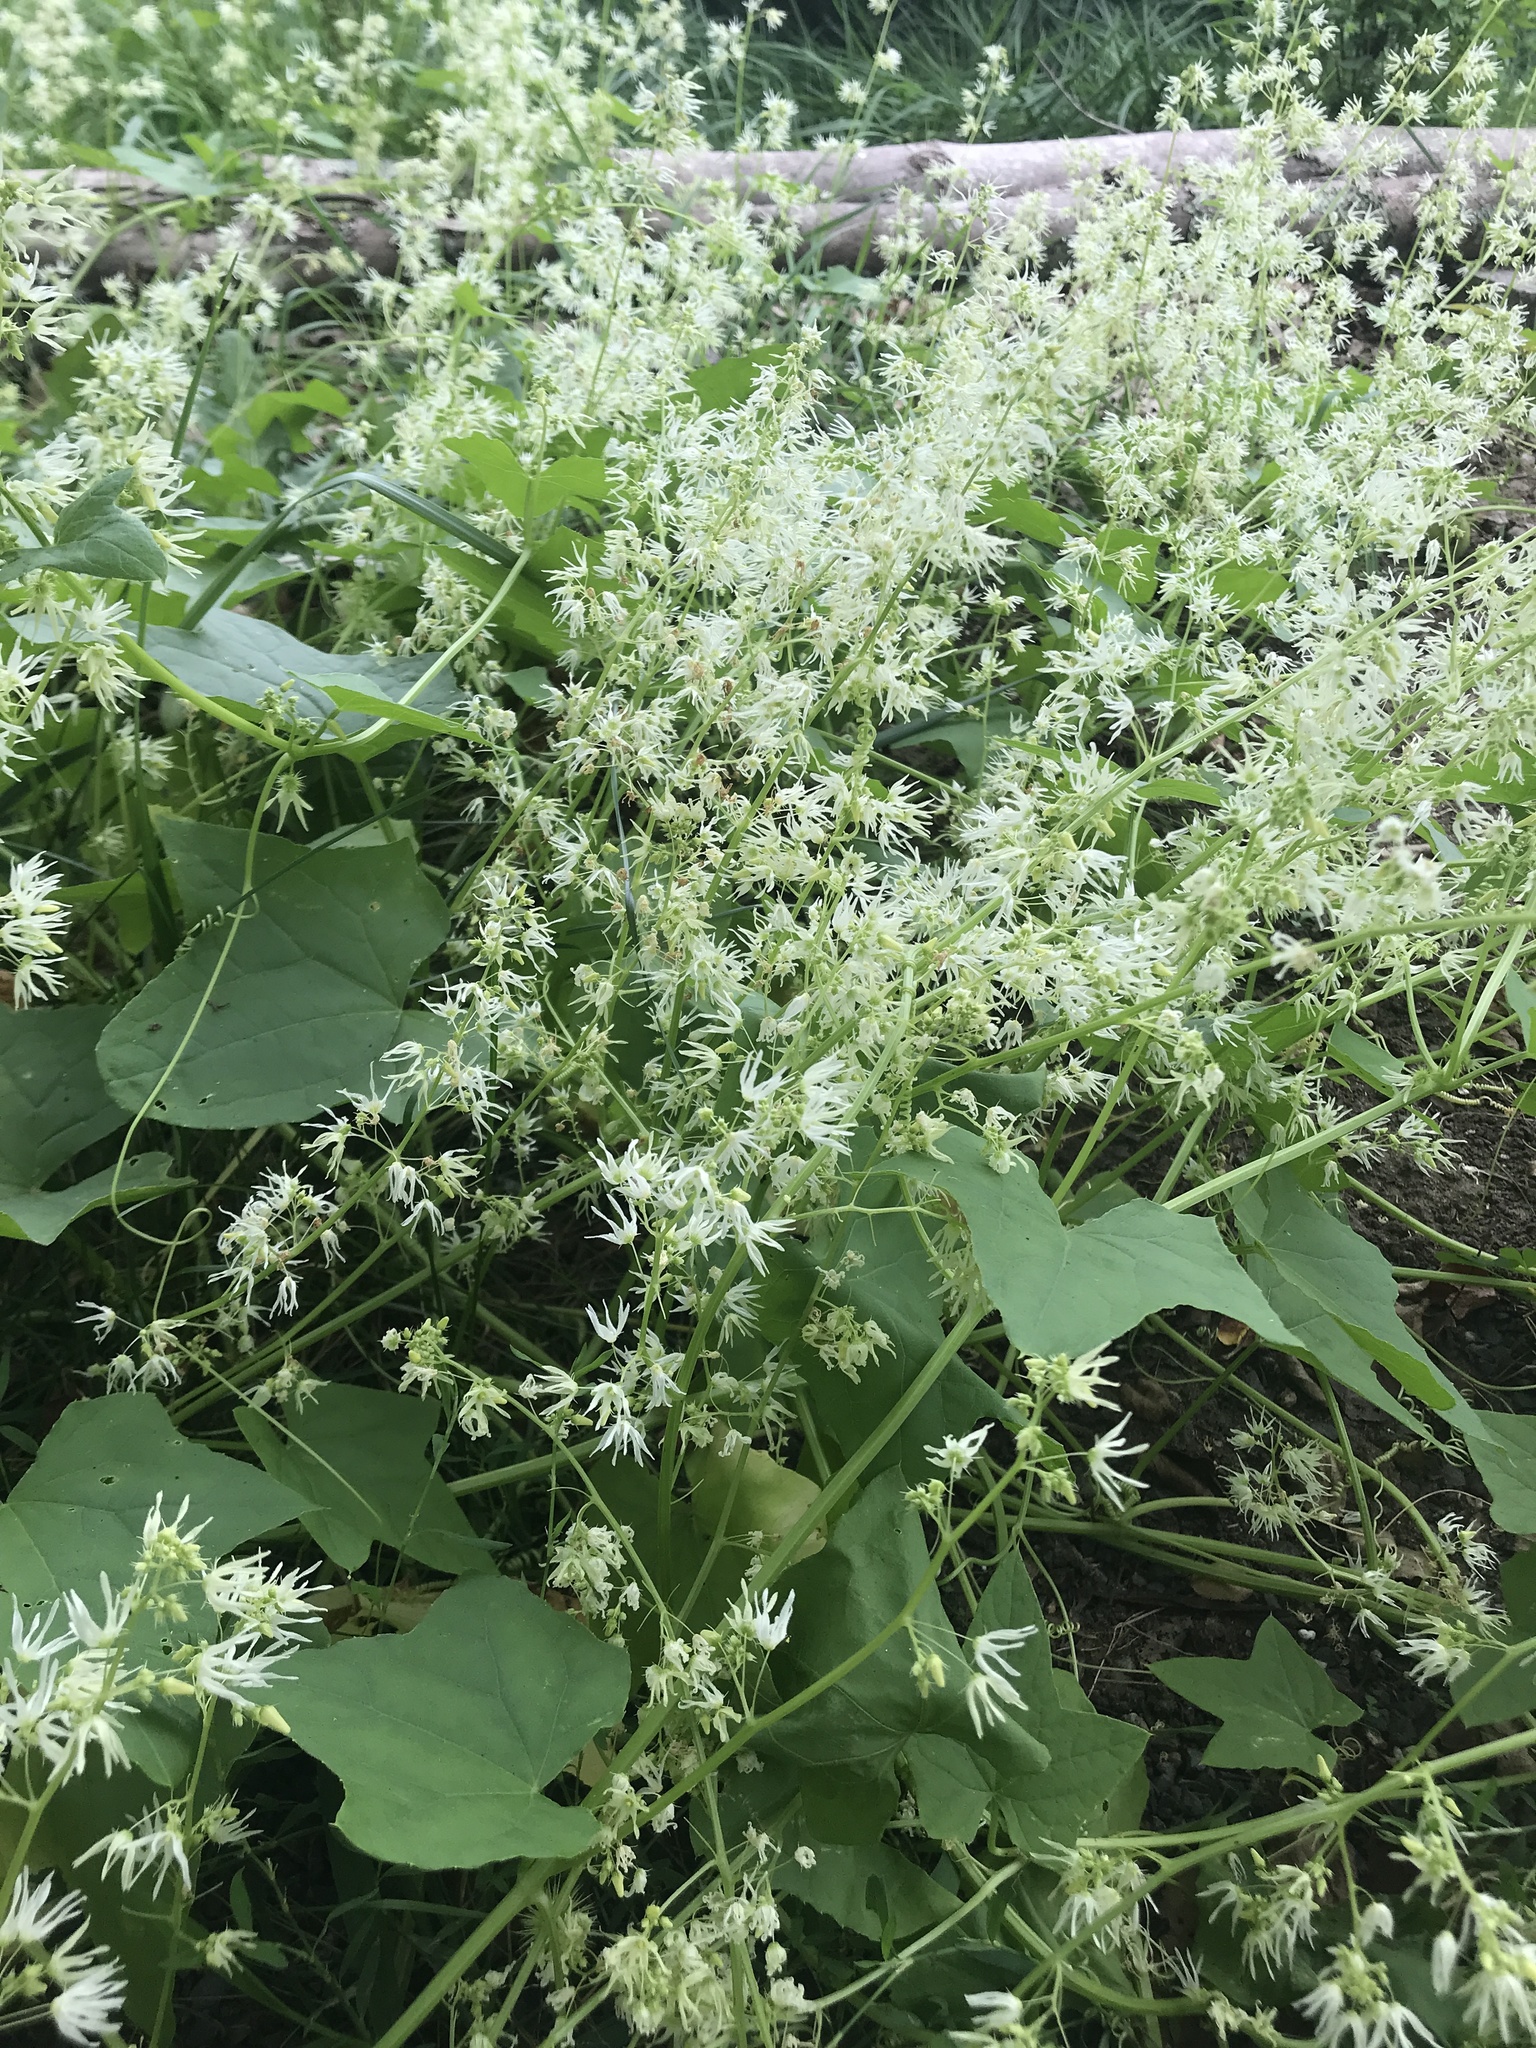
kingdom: Plantae
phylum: Tracheophyta
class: Magnoliopsida
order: Cucurbitales
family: Cucurbitaceae
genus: Echinocystis
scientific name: Echinocystis lobata
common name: Wild cucumber
